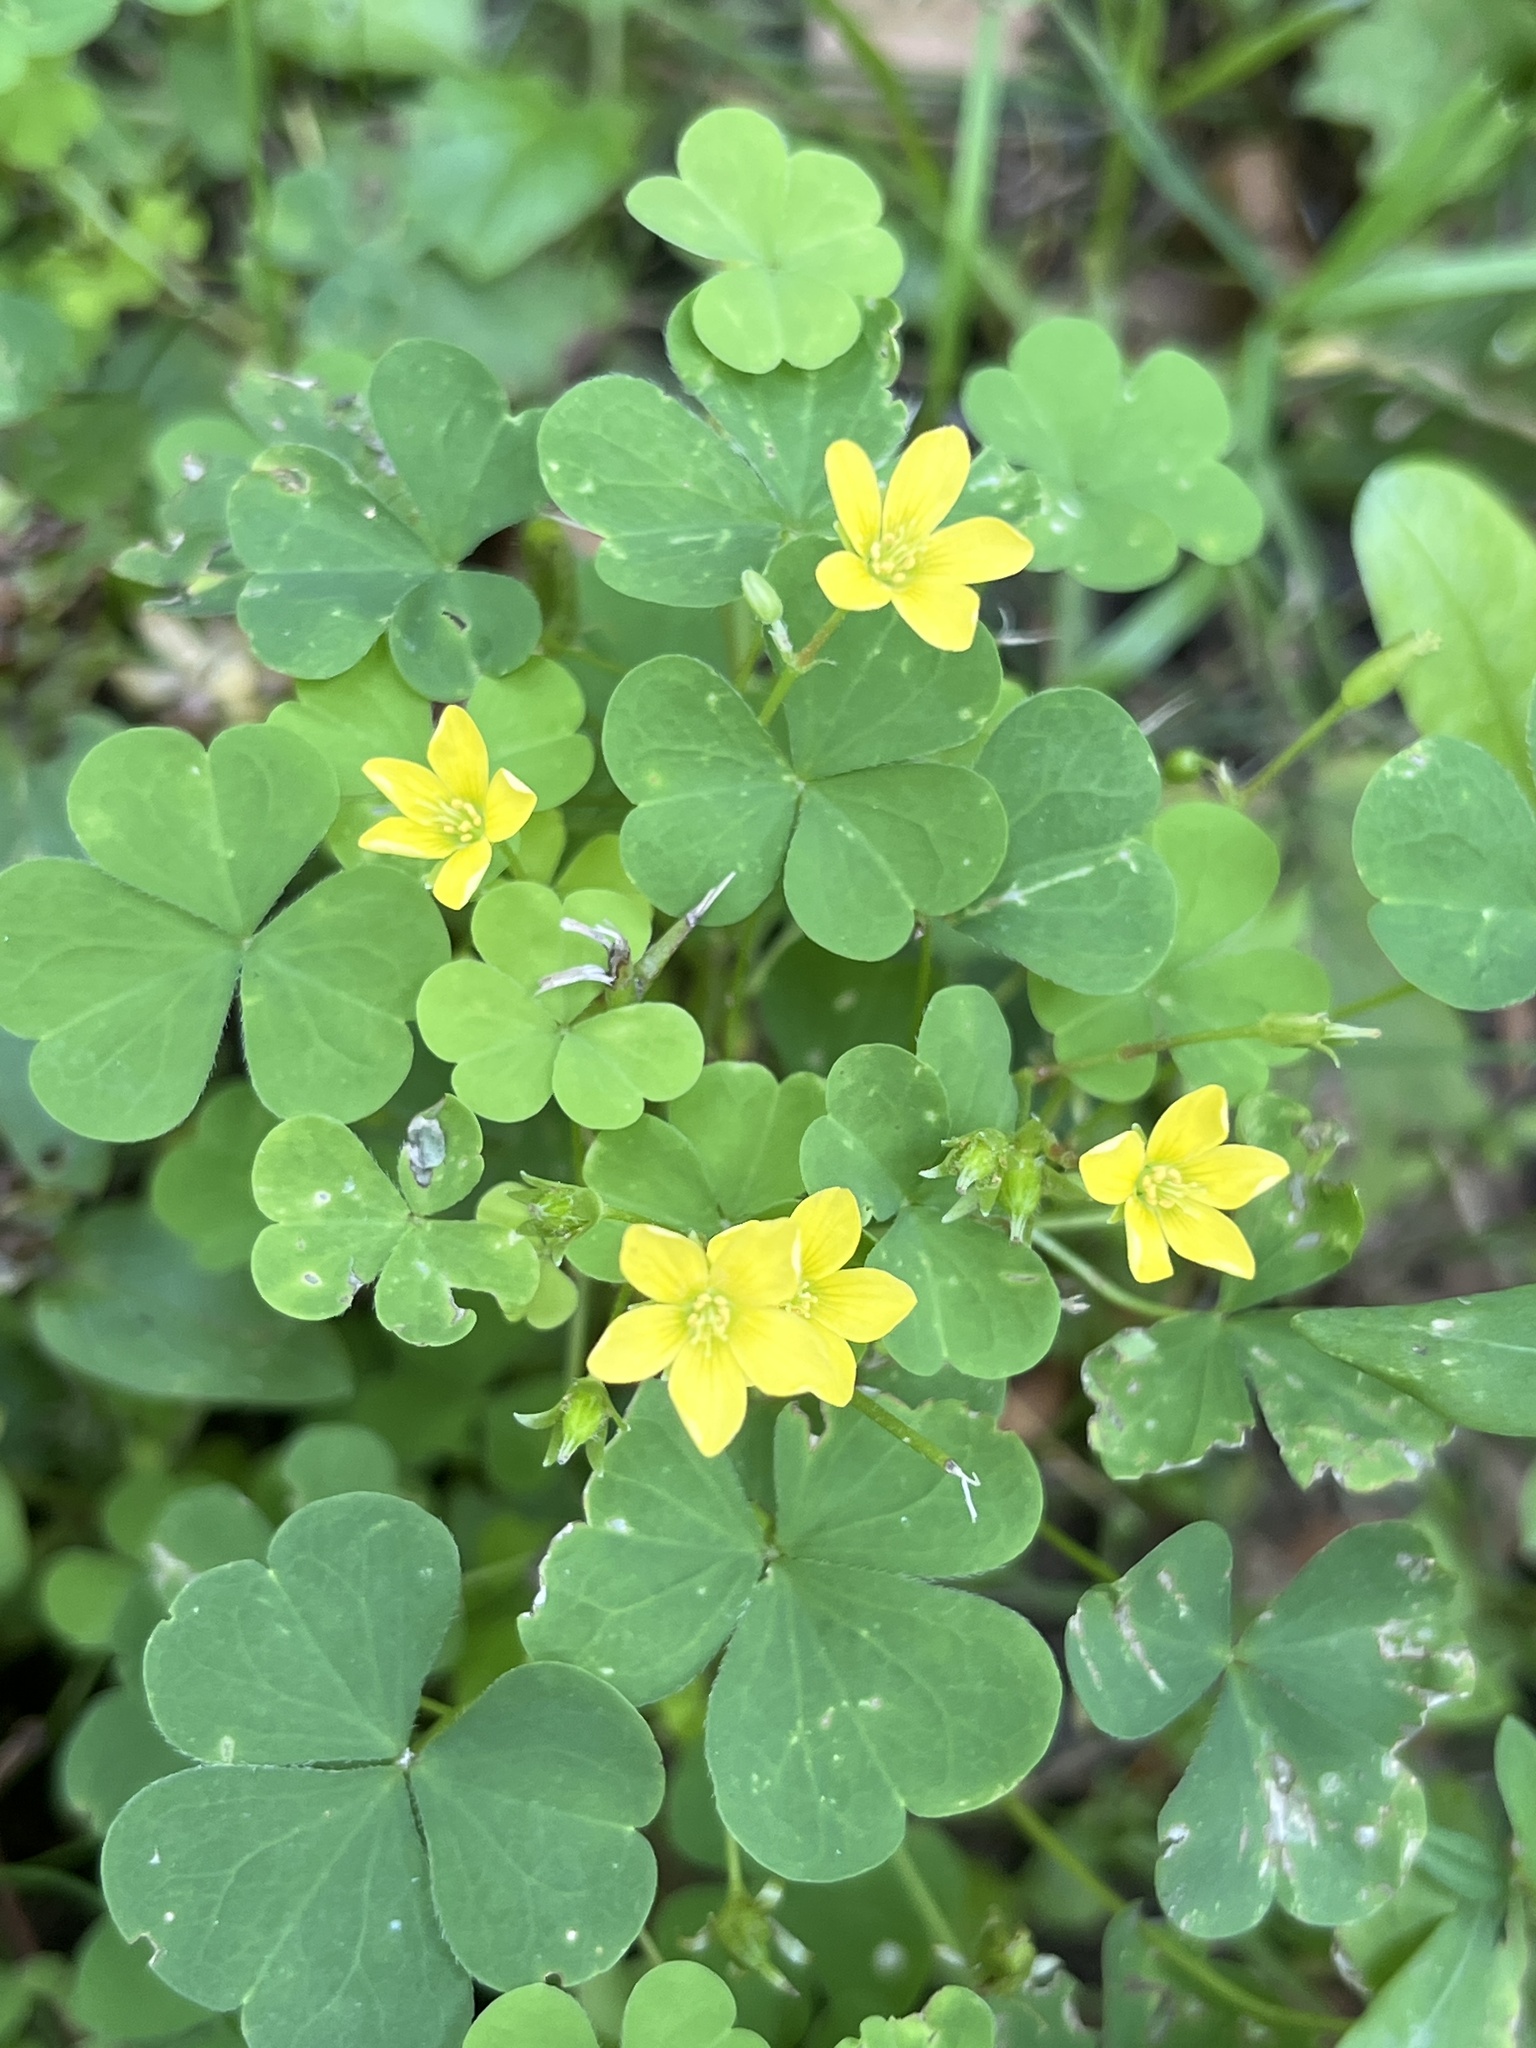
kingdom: Plantae
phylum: Tracheophyta
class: Magnoliopsida
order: Oxalidales
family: Oxalidaceae
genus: Oxalis
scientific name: Oxalis stricta
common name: Upright yellow-sorrel
